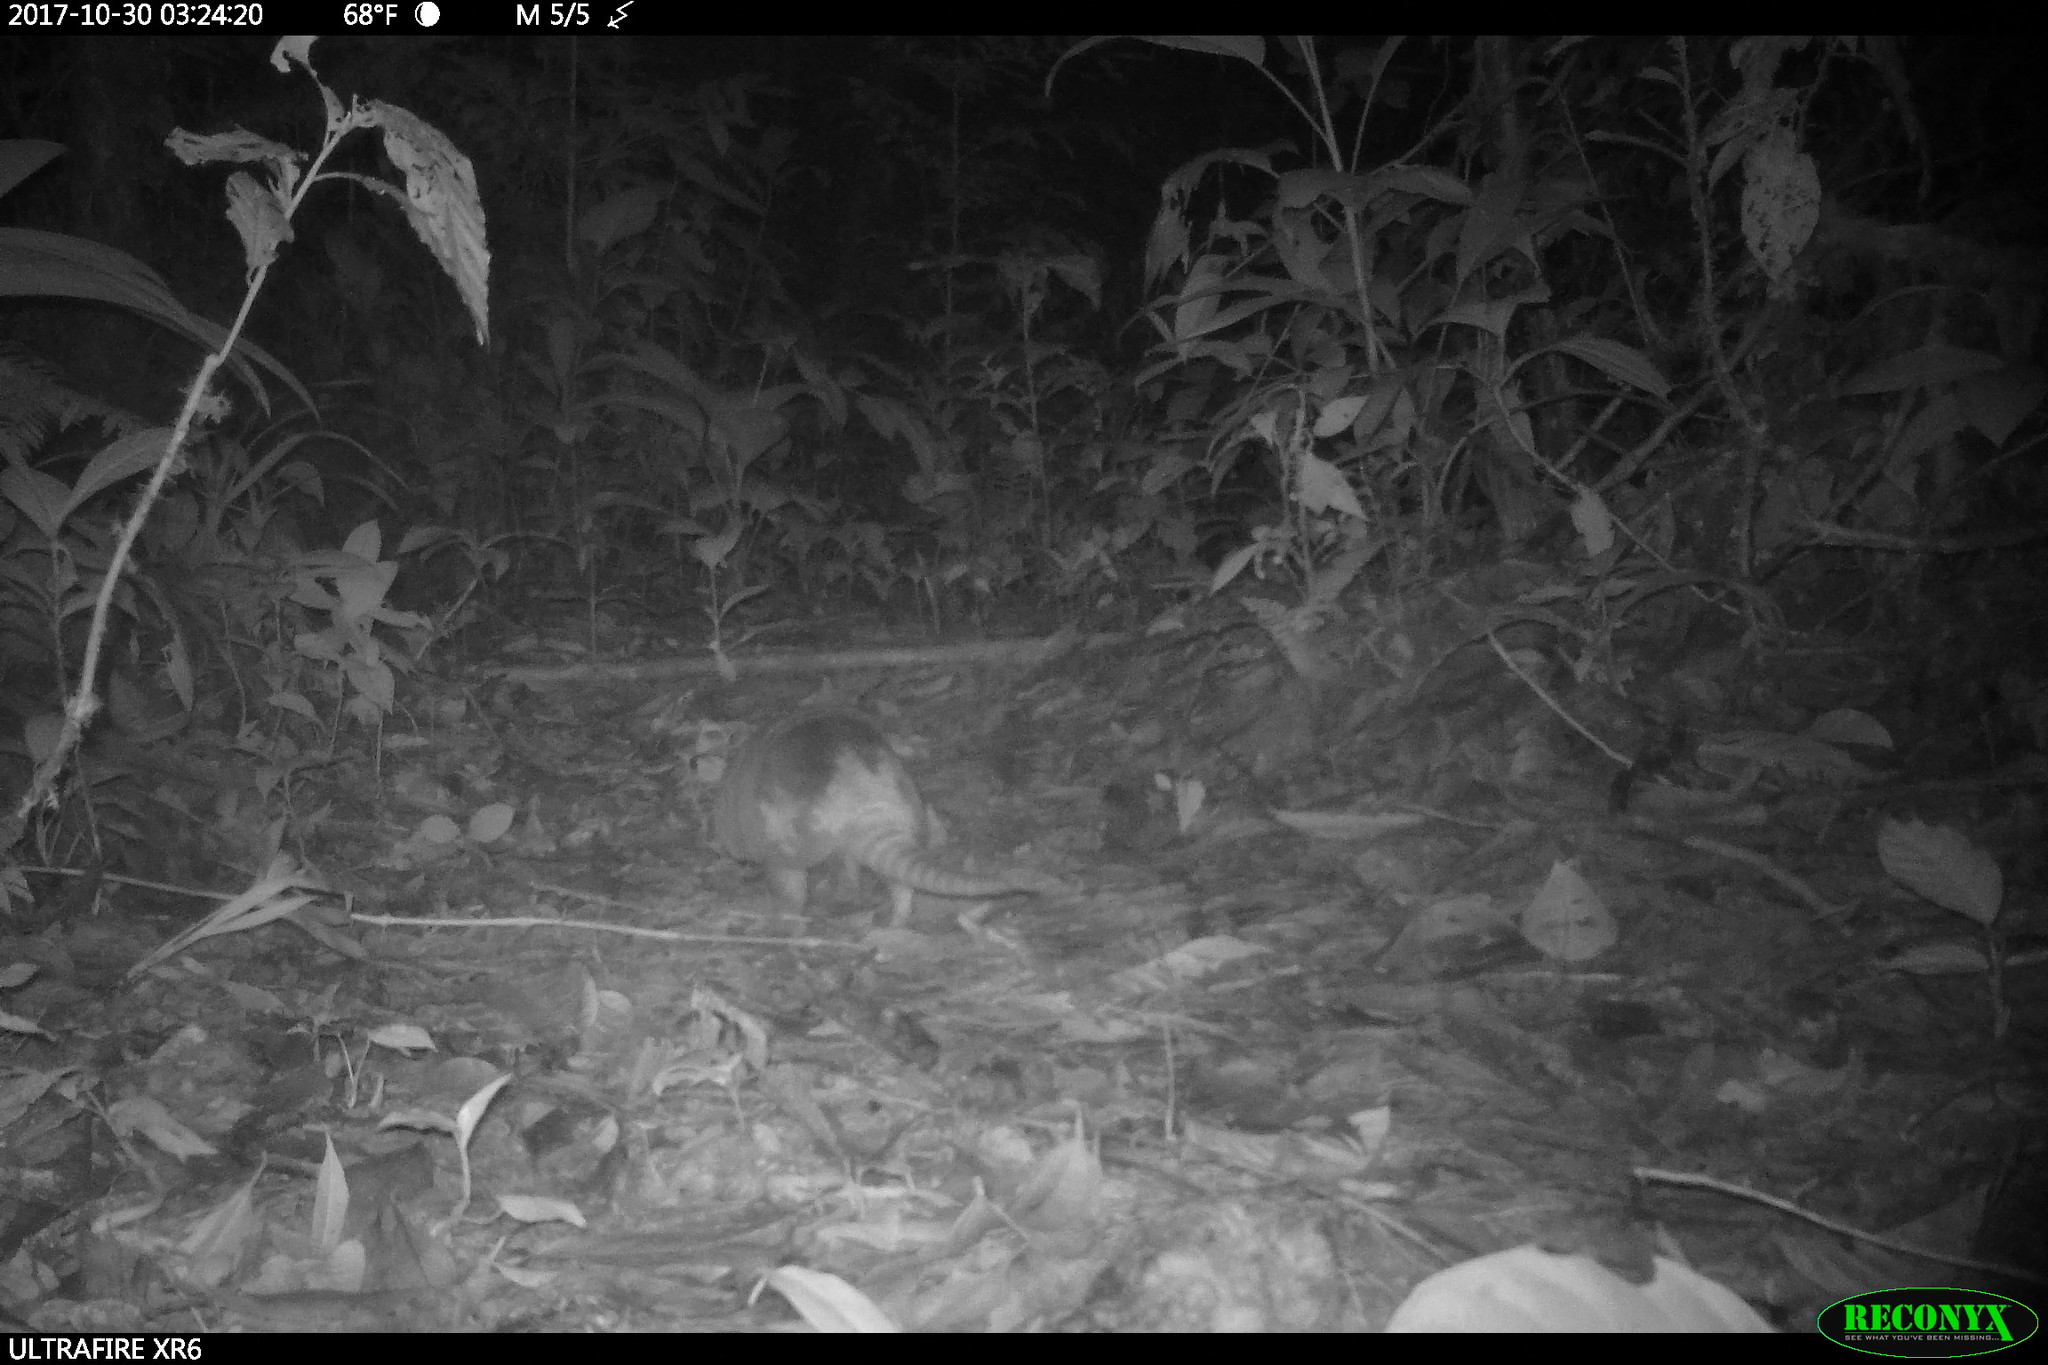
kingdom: Animalia
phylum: Chordata
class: Mammalia
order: Cingulata
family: Dasypodidae
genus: Dasypus
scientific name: Dasypus novemcinctus
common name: Nine-banded armadillo
